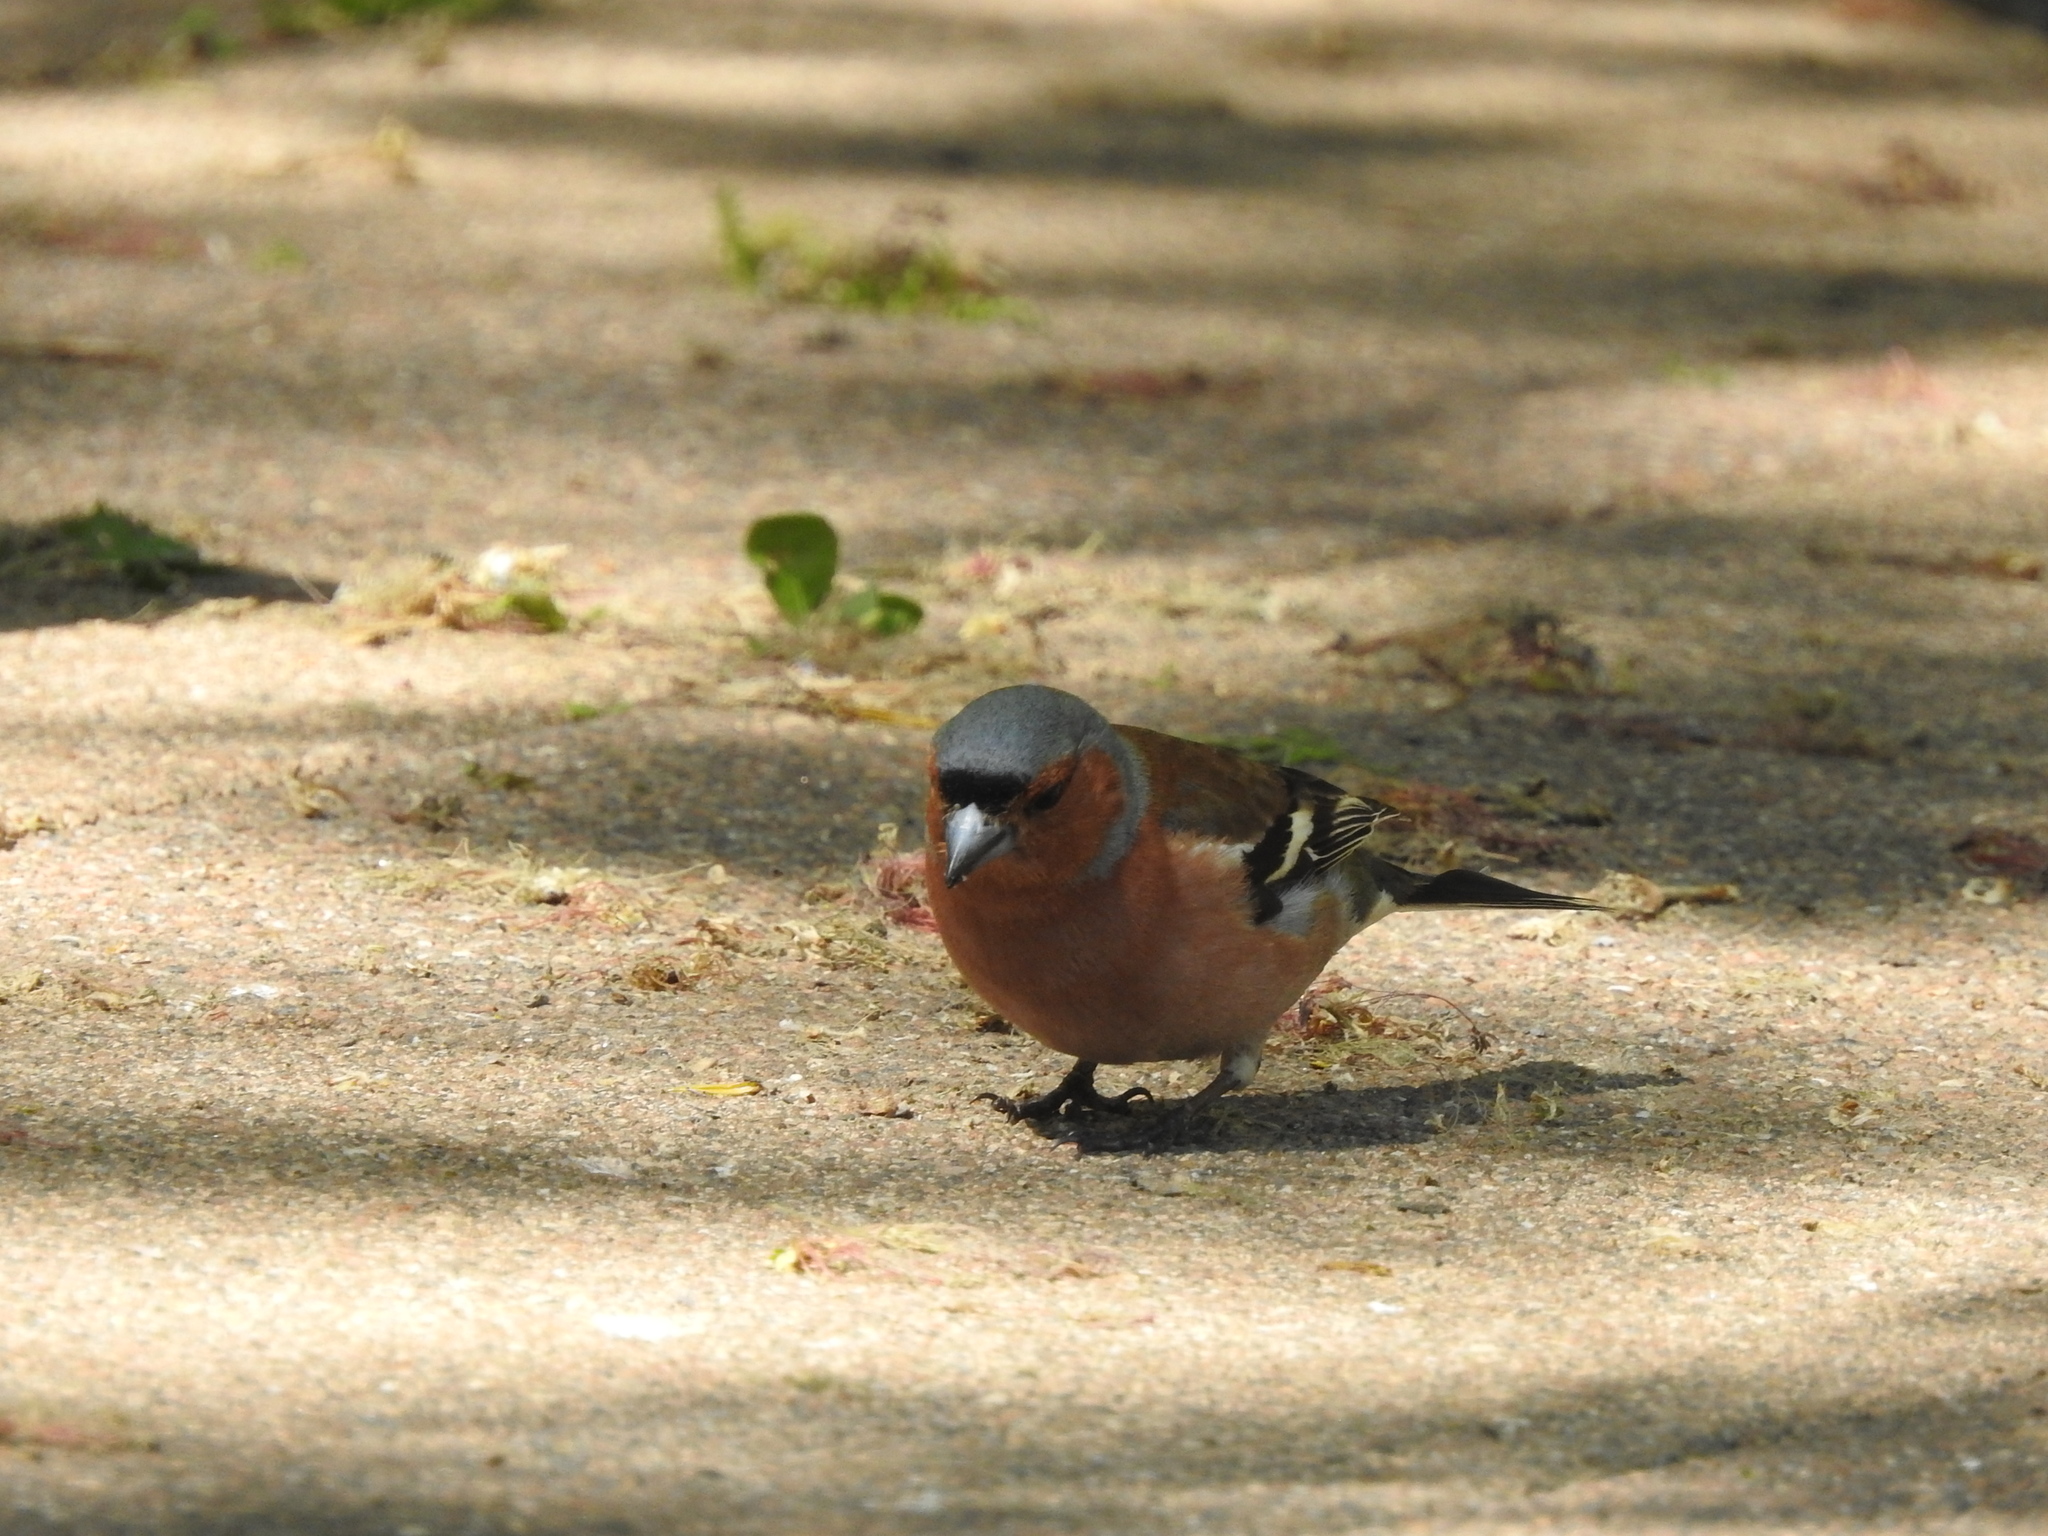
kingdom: Animalia
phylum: Chordata
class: Aves
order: Passeriformes
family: Fringillidae
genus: Fringilla
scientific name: Fringilla coelebs
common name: Common chaffinch
